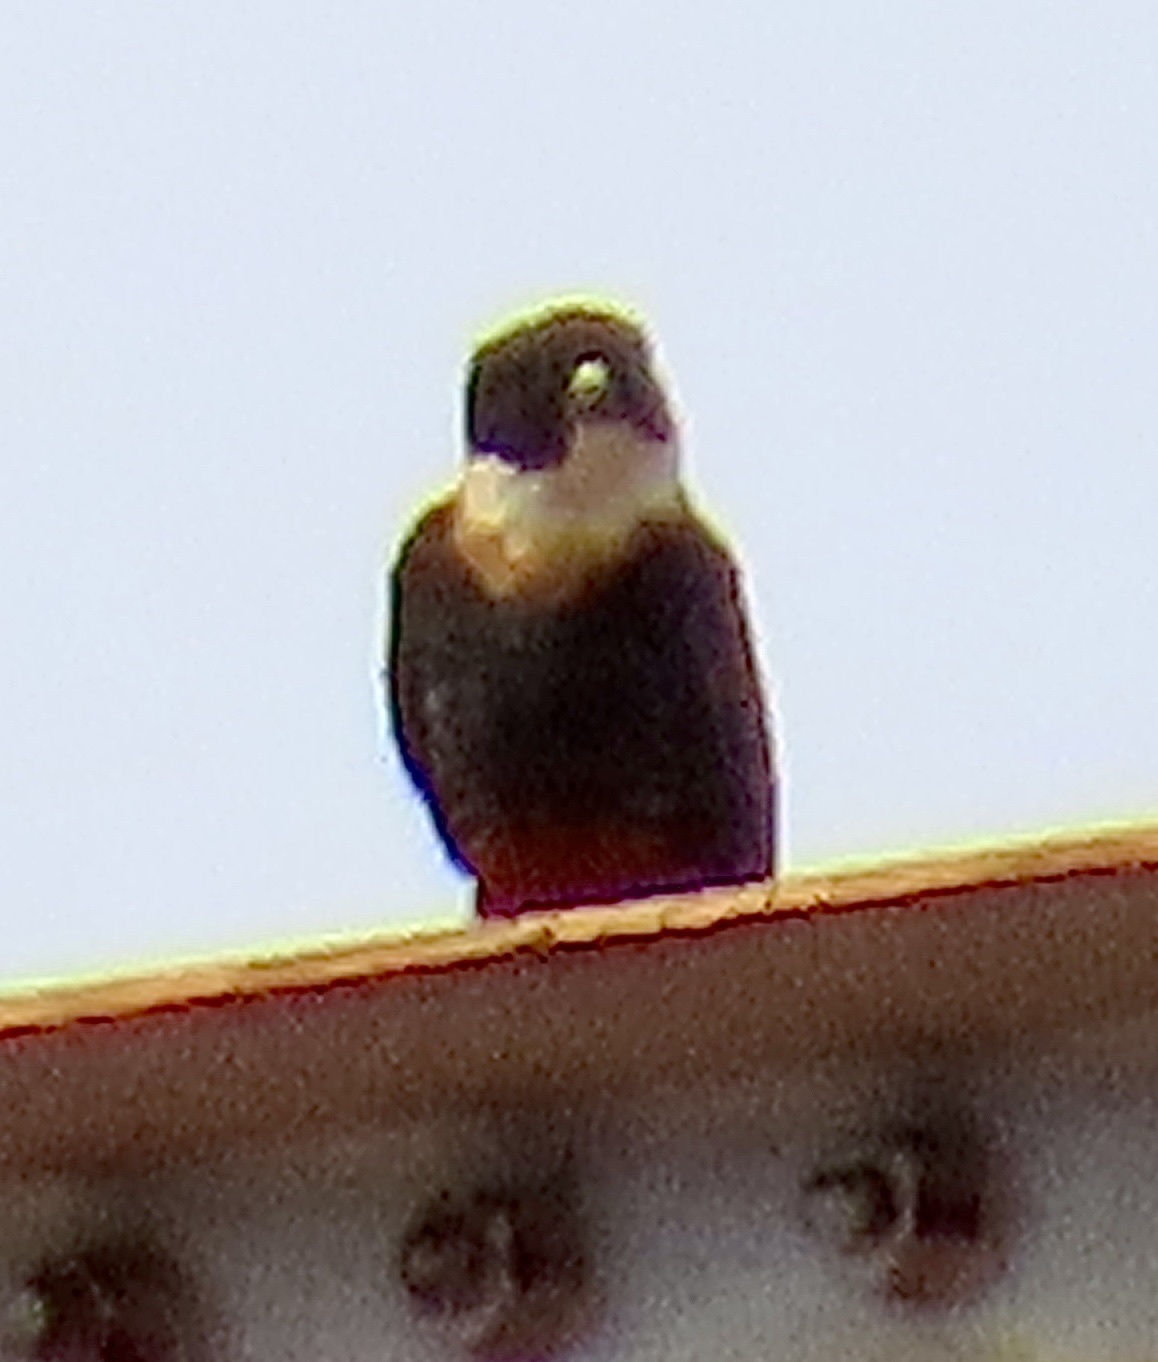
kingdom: Animalia
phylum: Chordata
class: Aves
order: Falconiformes
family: Falconidae
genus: Falco
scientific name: Falco rufigularis
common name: Bat falcon
